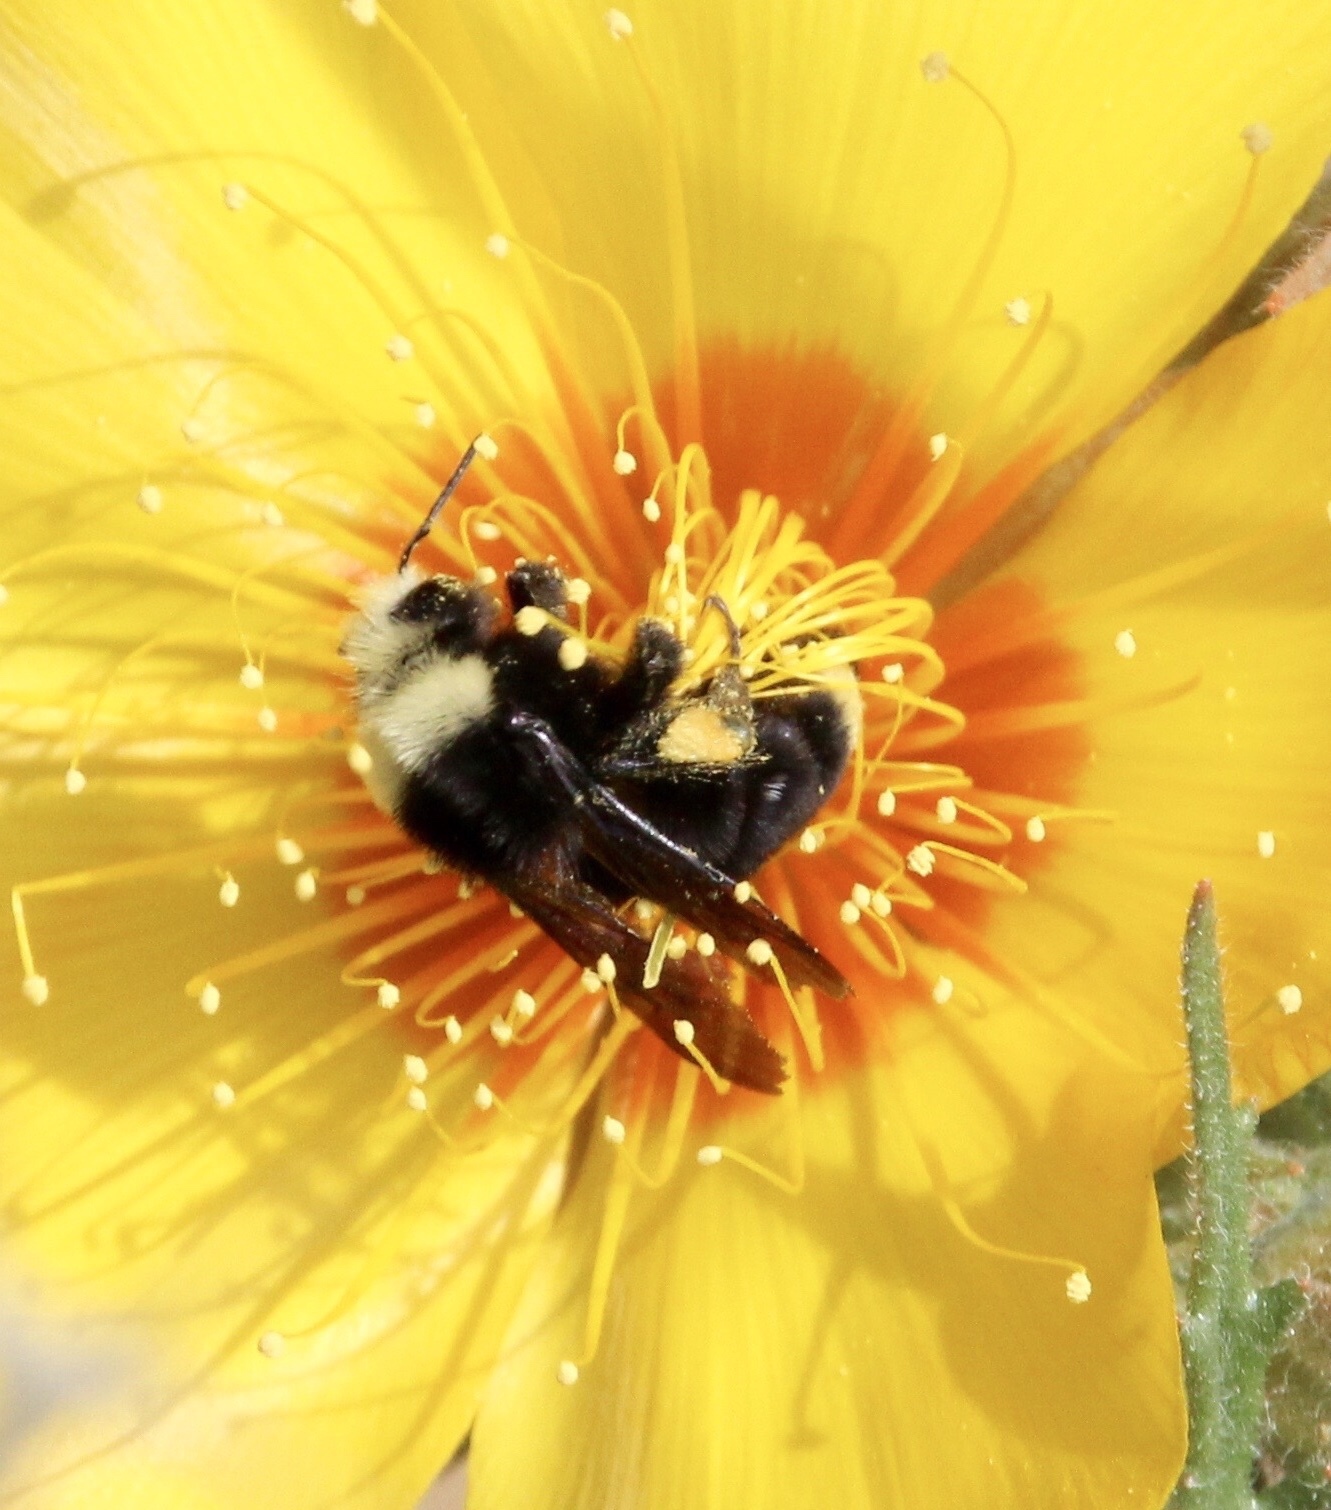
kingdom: Animalia
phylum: Arthropoda
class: Insecta
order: Hymenoptera
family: Apidae
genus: Bombus
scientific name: Bombus vosnesenskii
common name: Vosnesensky bumble bee
